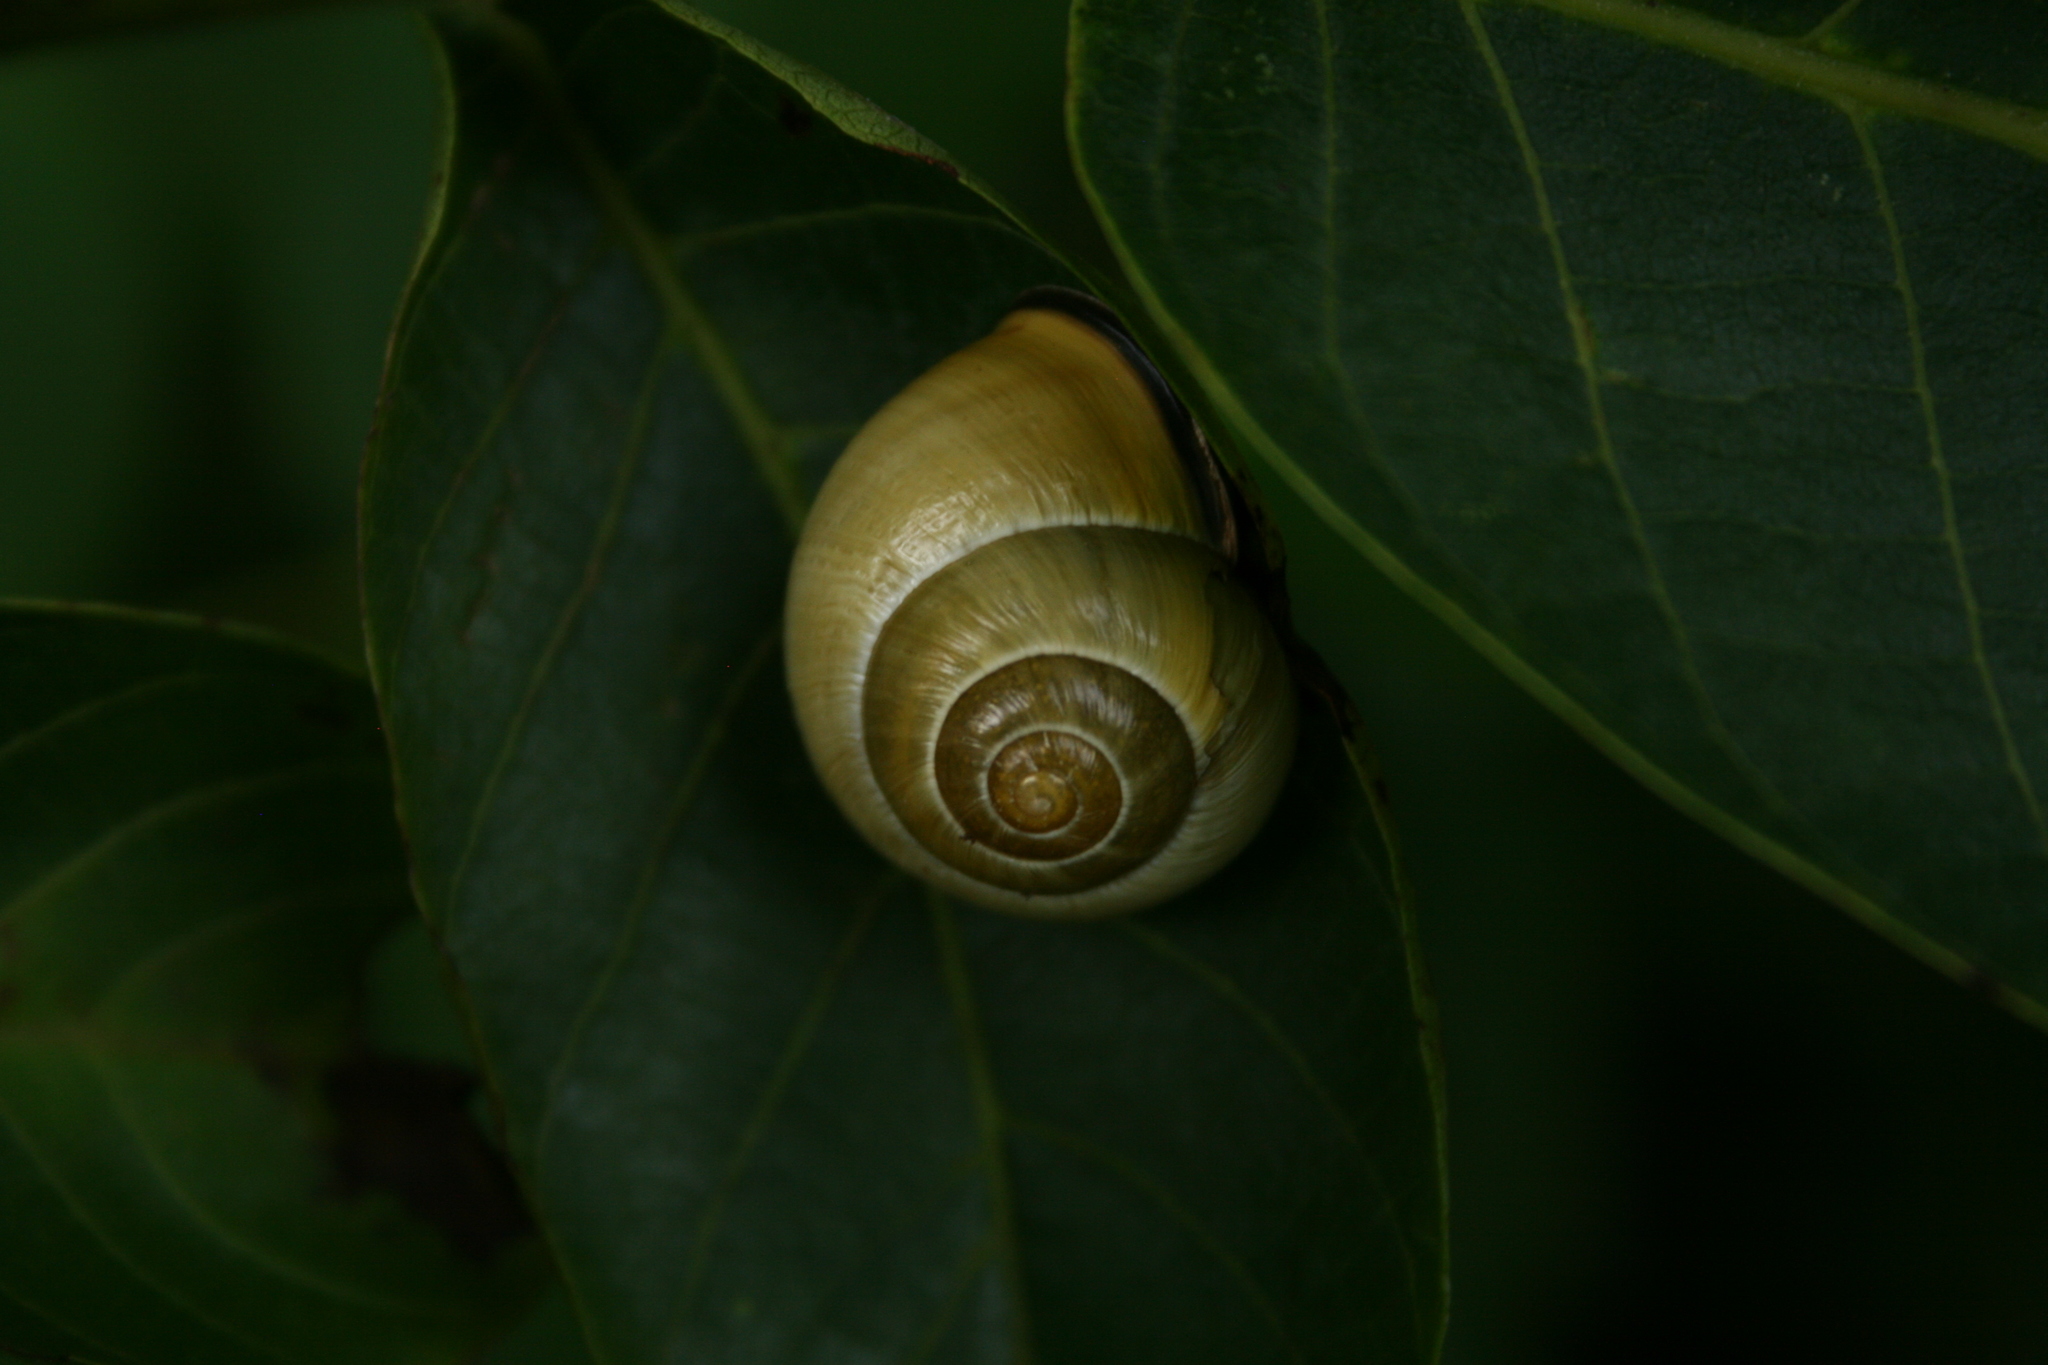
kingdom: Animalia
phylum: Mollusca
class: Gastropoda
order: Stylommatophora
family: Helicidae
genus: Cepaea
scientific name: Cepaea nemoralis
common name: Grovesnail
